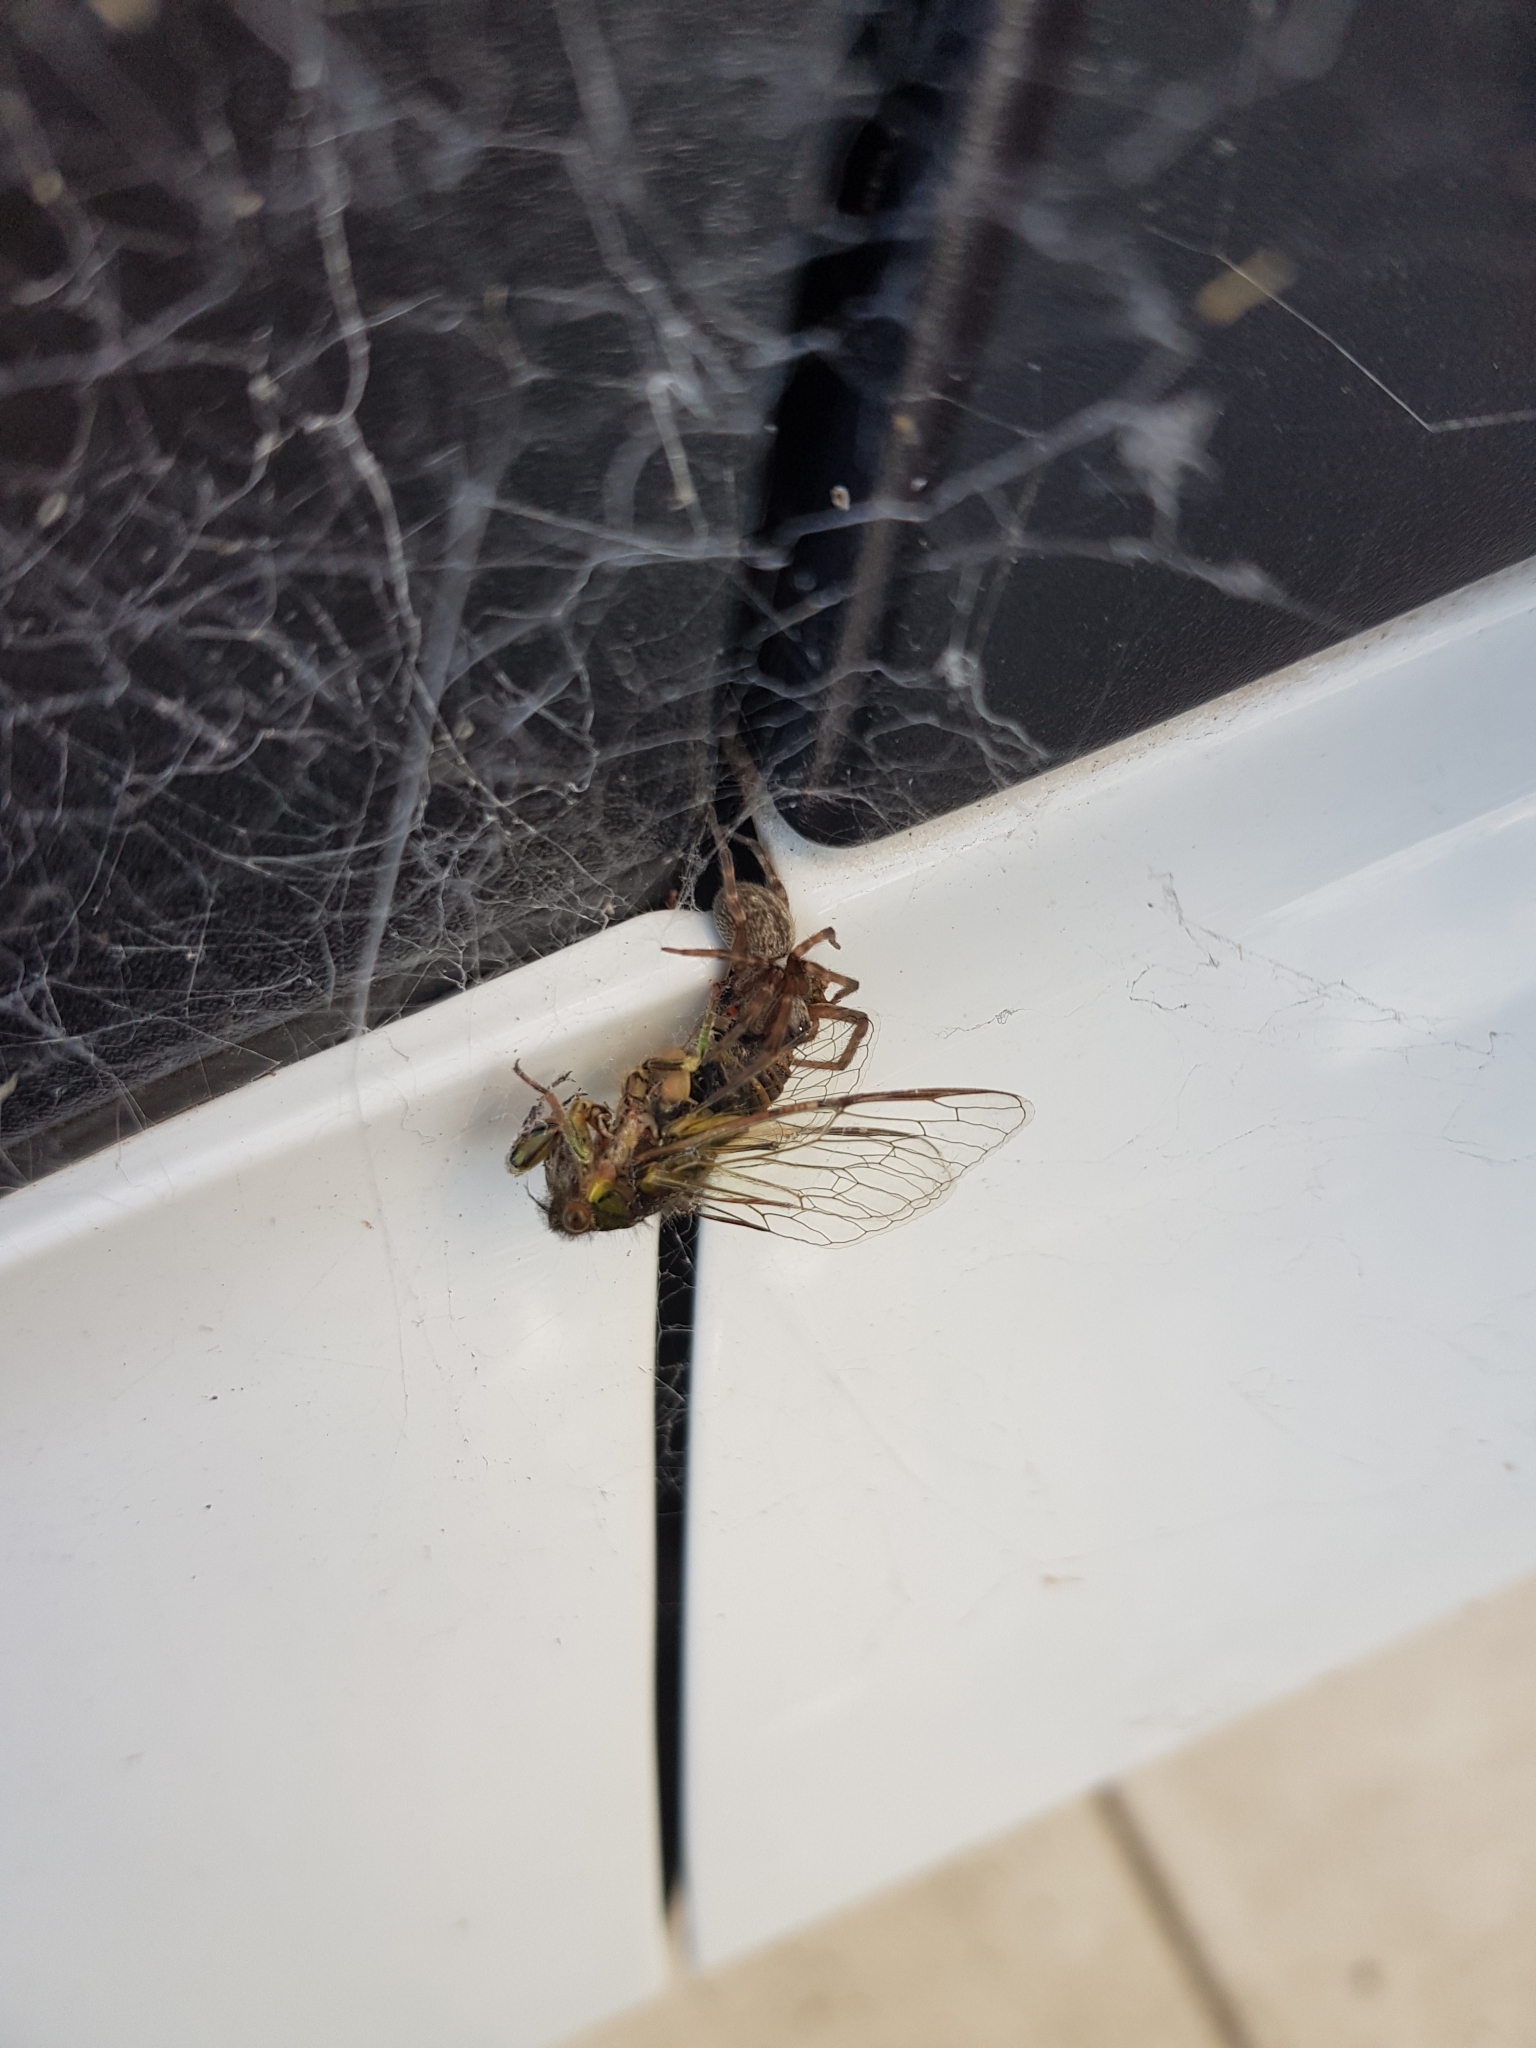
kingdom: Animalia
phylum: Arthropoda
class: Arachnida
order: Araneae
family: Desidae
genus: Badumna
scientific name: Badumna longinqua
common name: Gray house spider
